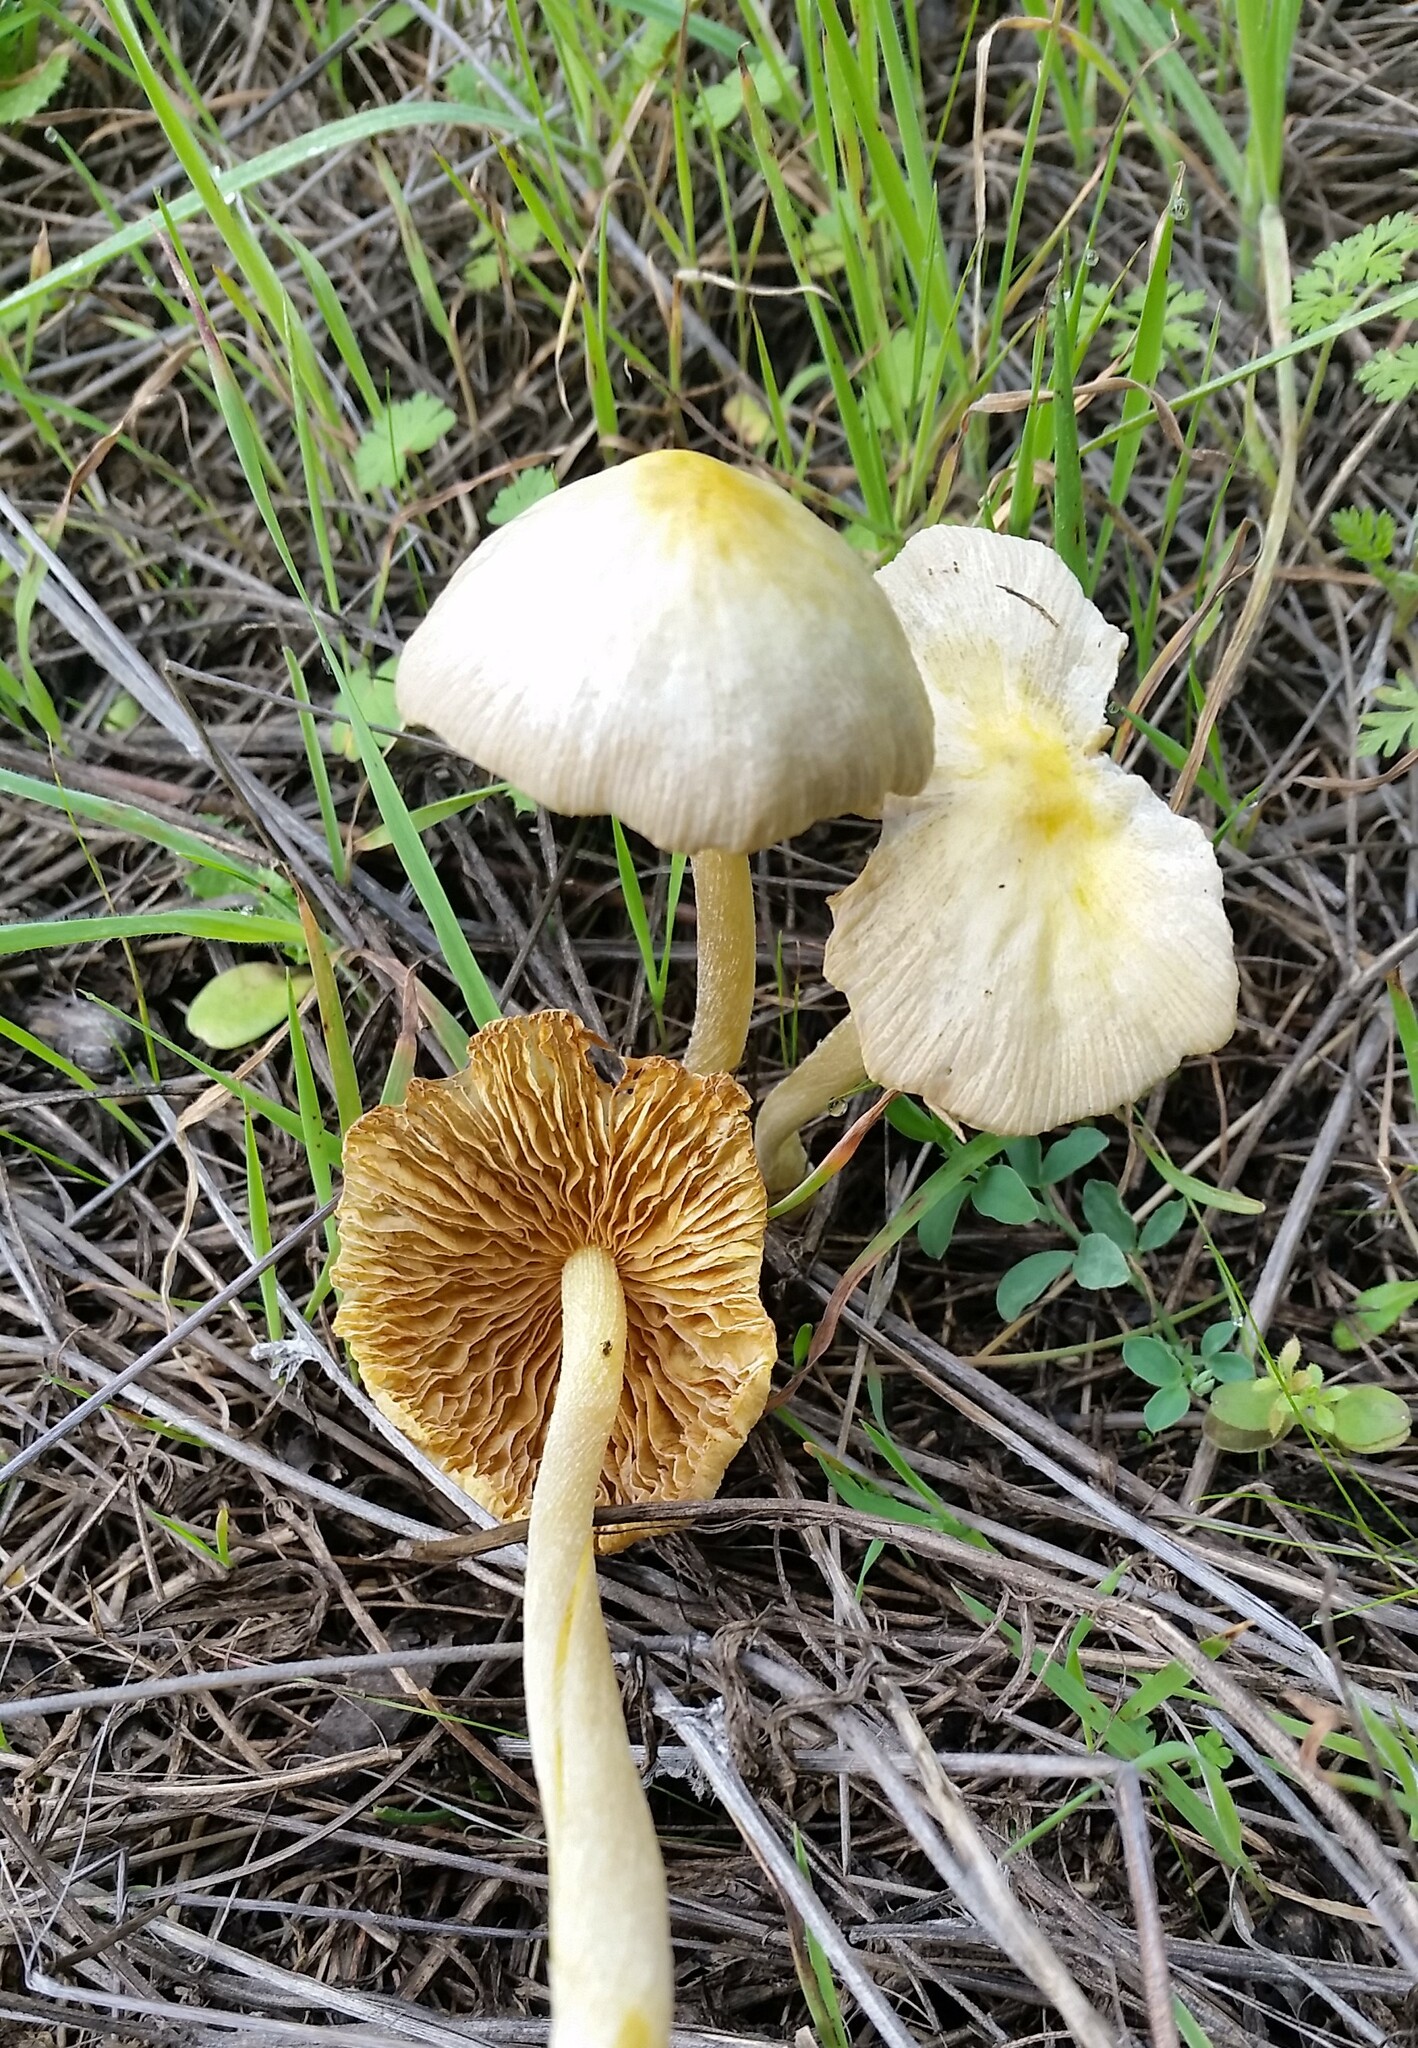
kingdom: Fungi
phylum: Basidiomycota
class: Agaricomycetes
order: Agaricales
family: Bolbitiaceae
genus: Bolbitius
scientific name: Bolbitius titubans
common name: Yellow fieldcap
